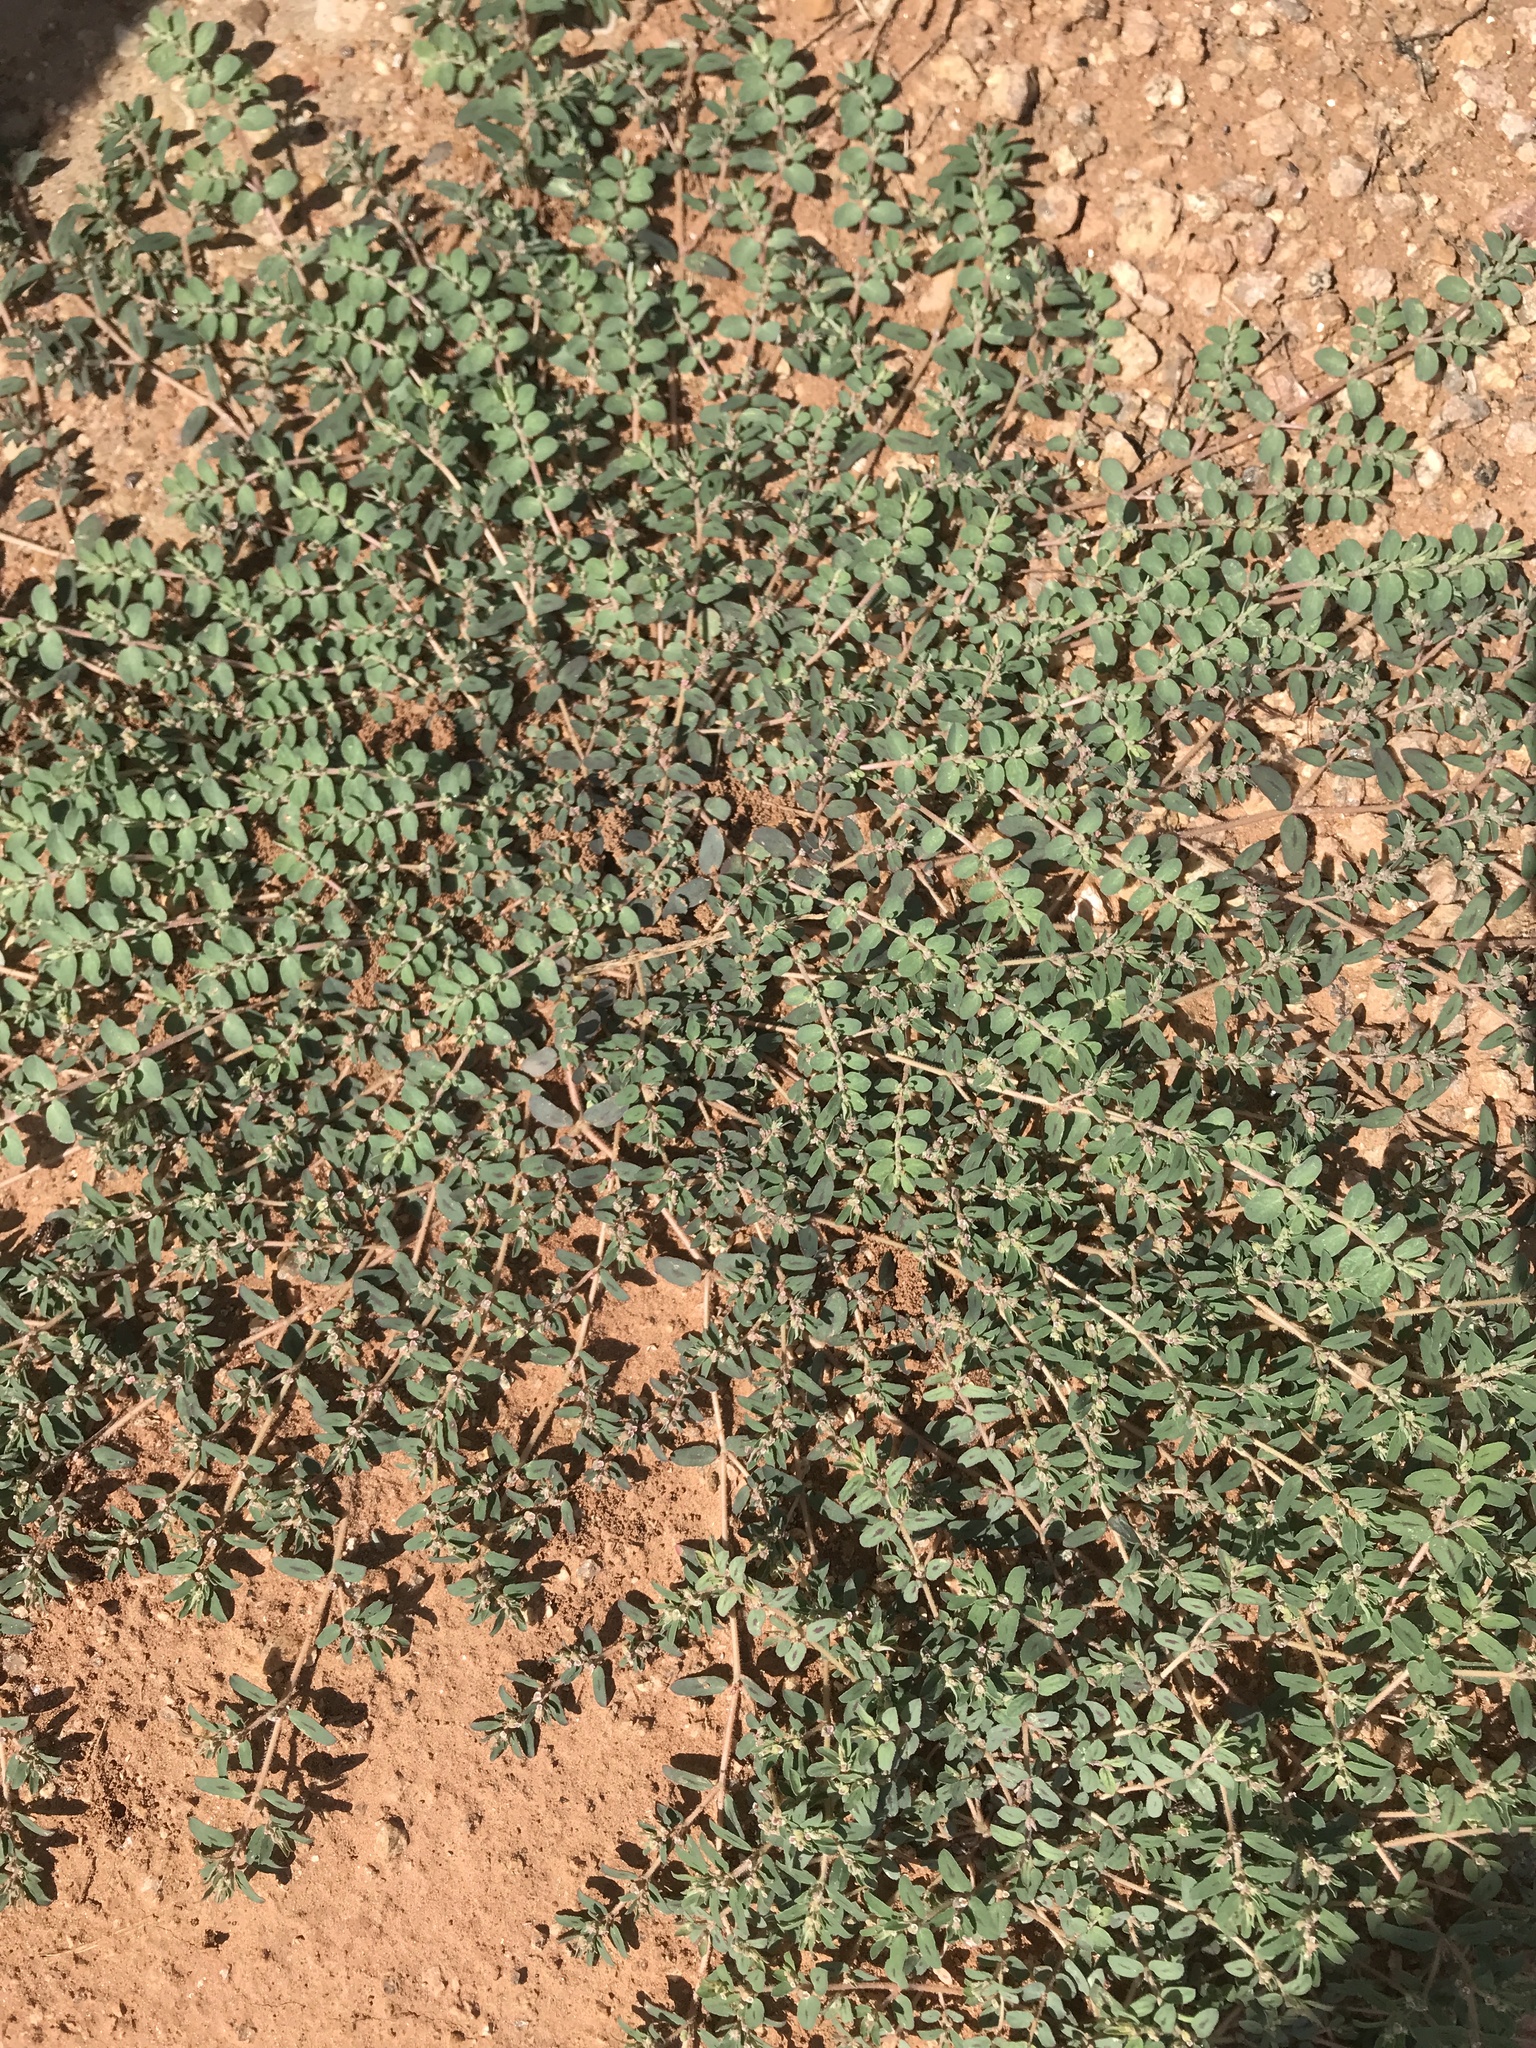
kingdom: Plantae
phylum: Tracheophyta
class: Magnoliopsida
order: Malpighiales
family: Euphorbiaceae
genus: Euphorbia
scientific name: Euphorbia maculata
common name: Spotted spurge
